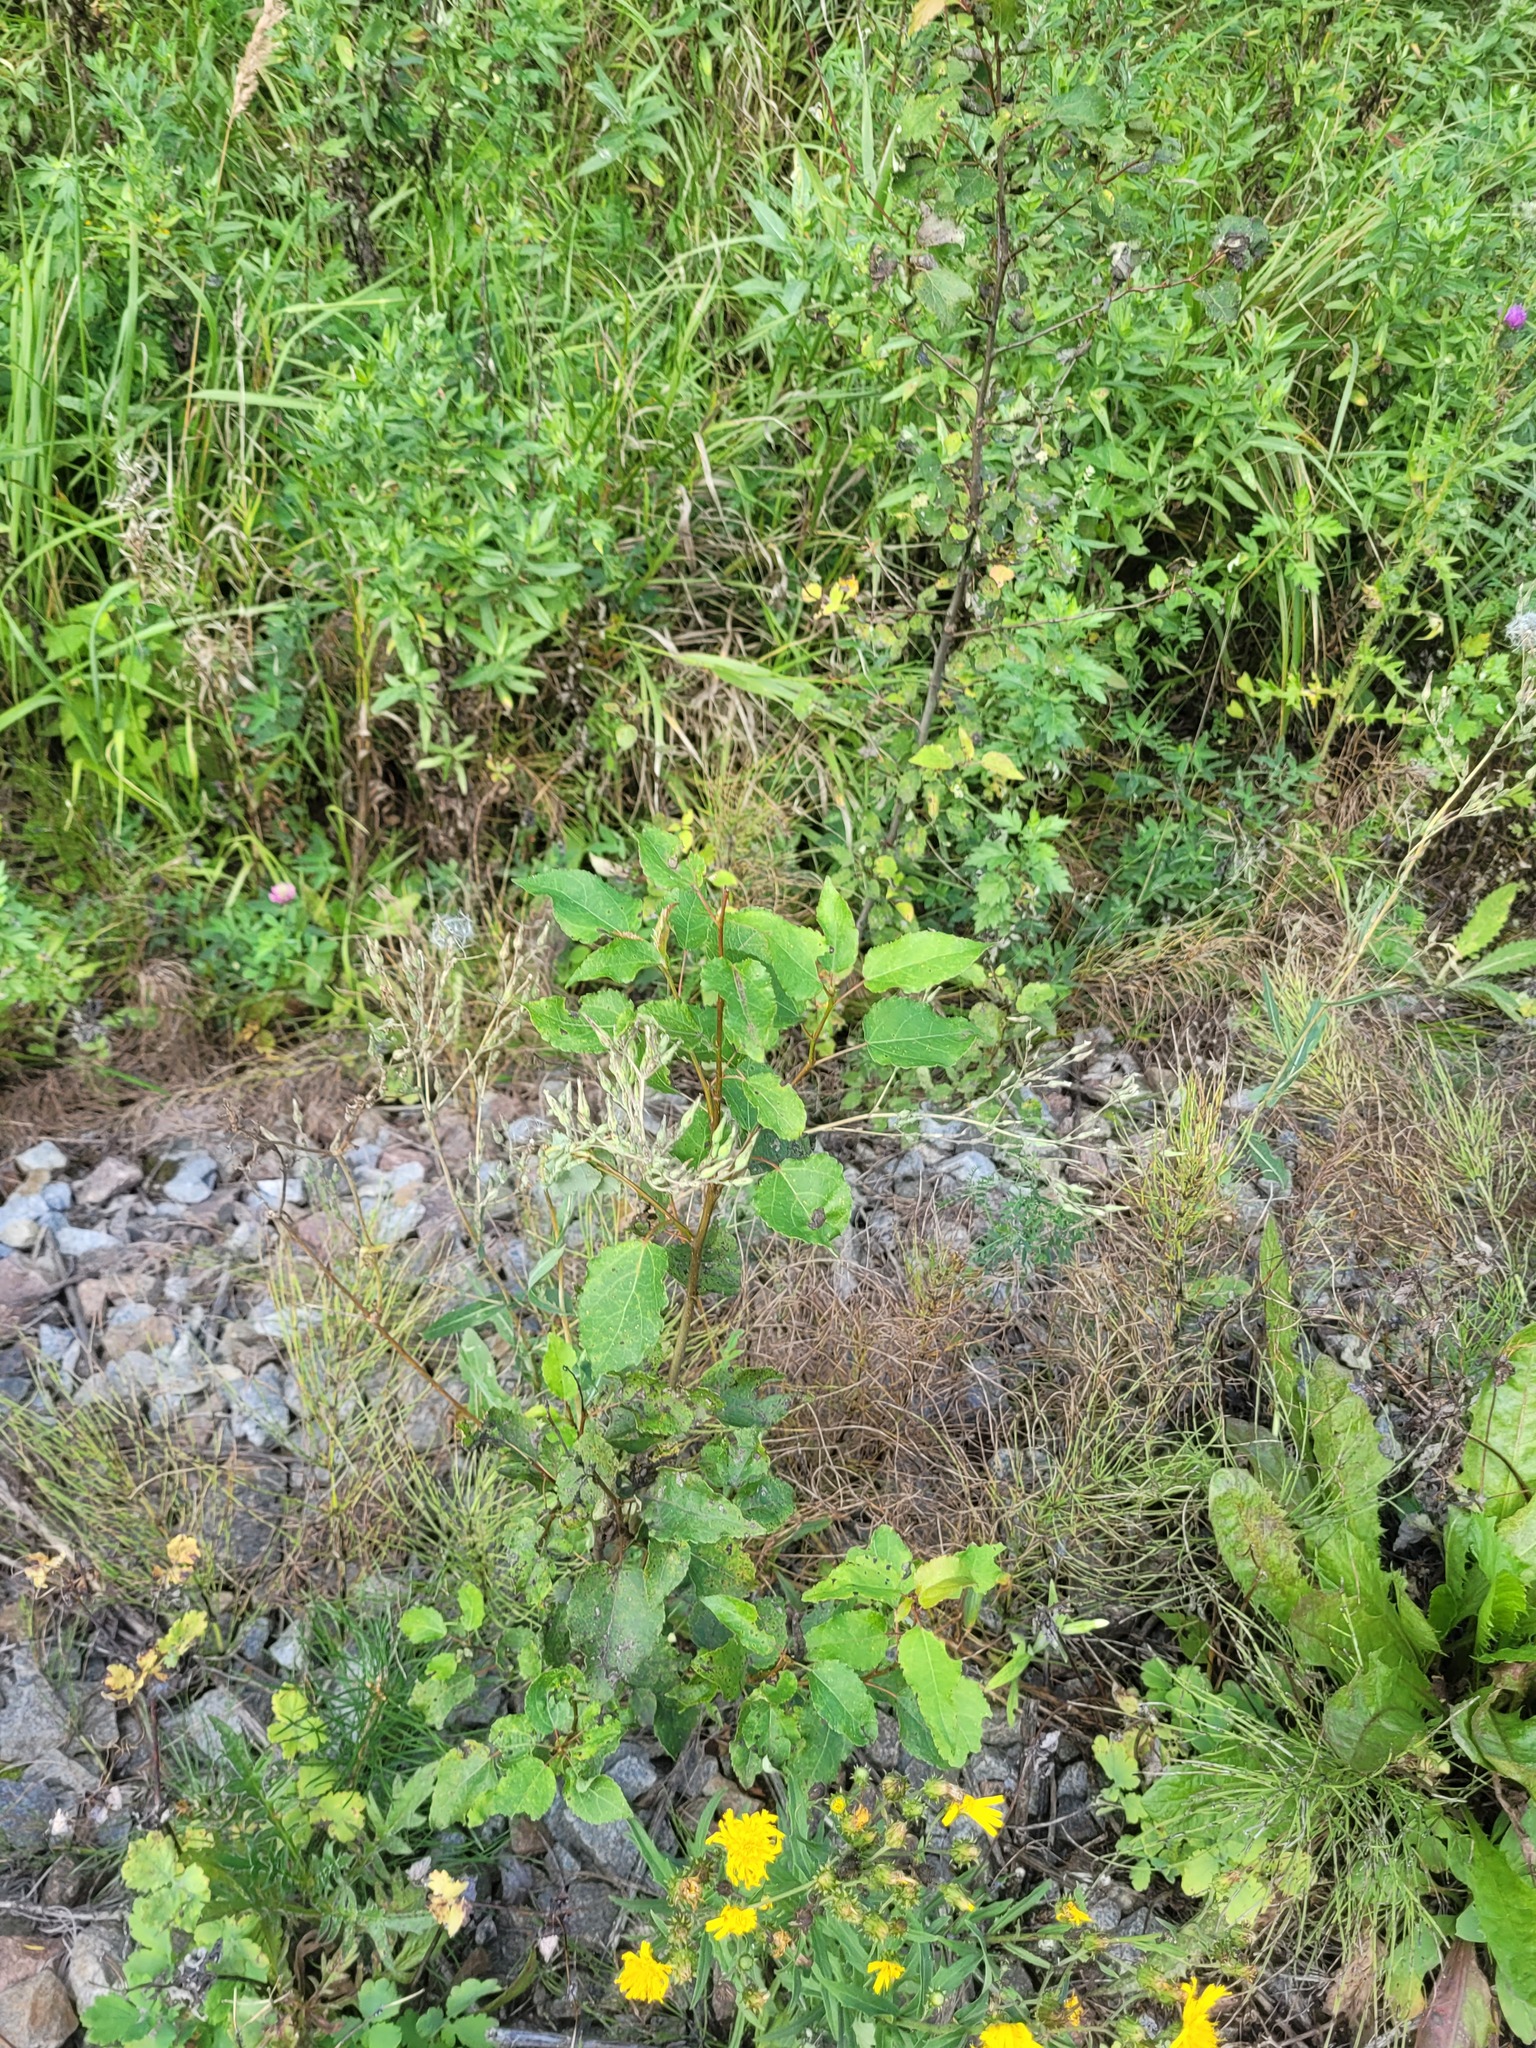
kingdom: Plantae
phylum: Tracheophyta
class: Magnoliopsida
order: Malpighiales
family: Salicaceae
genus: Populus
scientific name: Populus tremula
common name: European aspen
